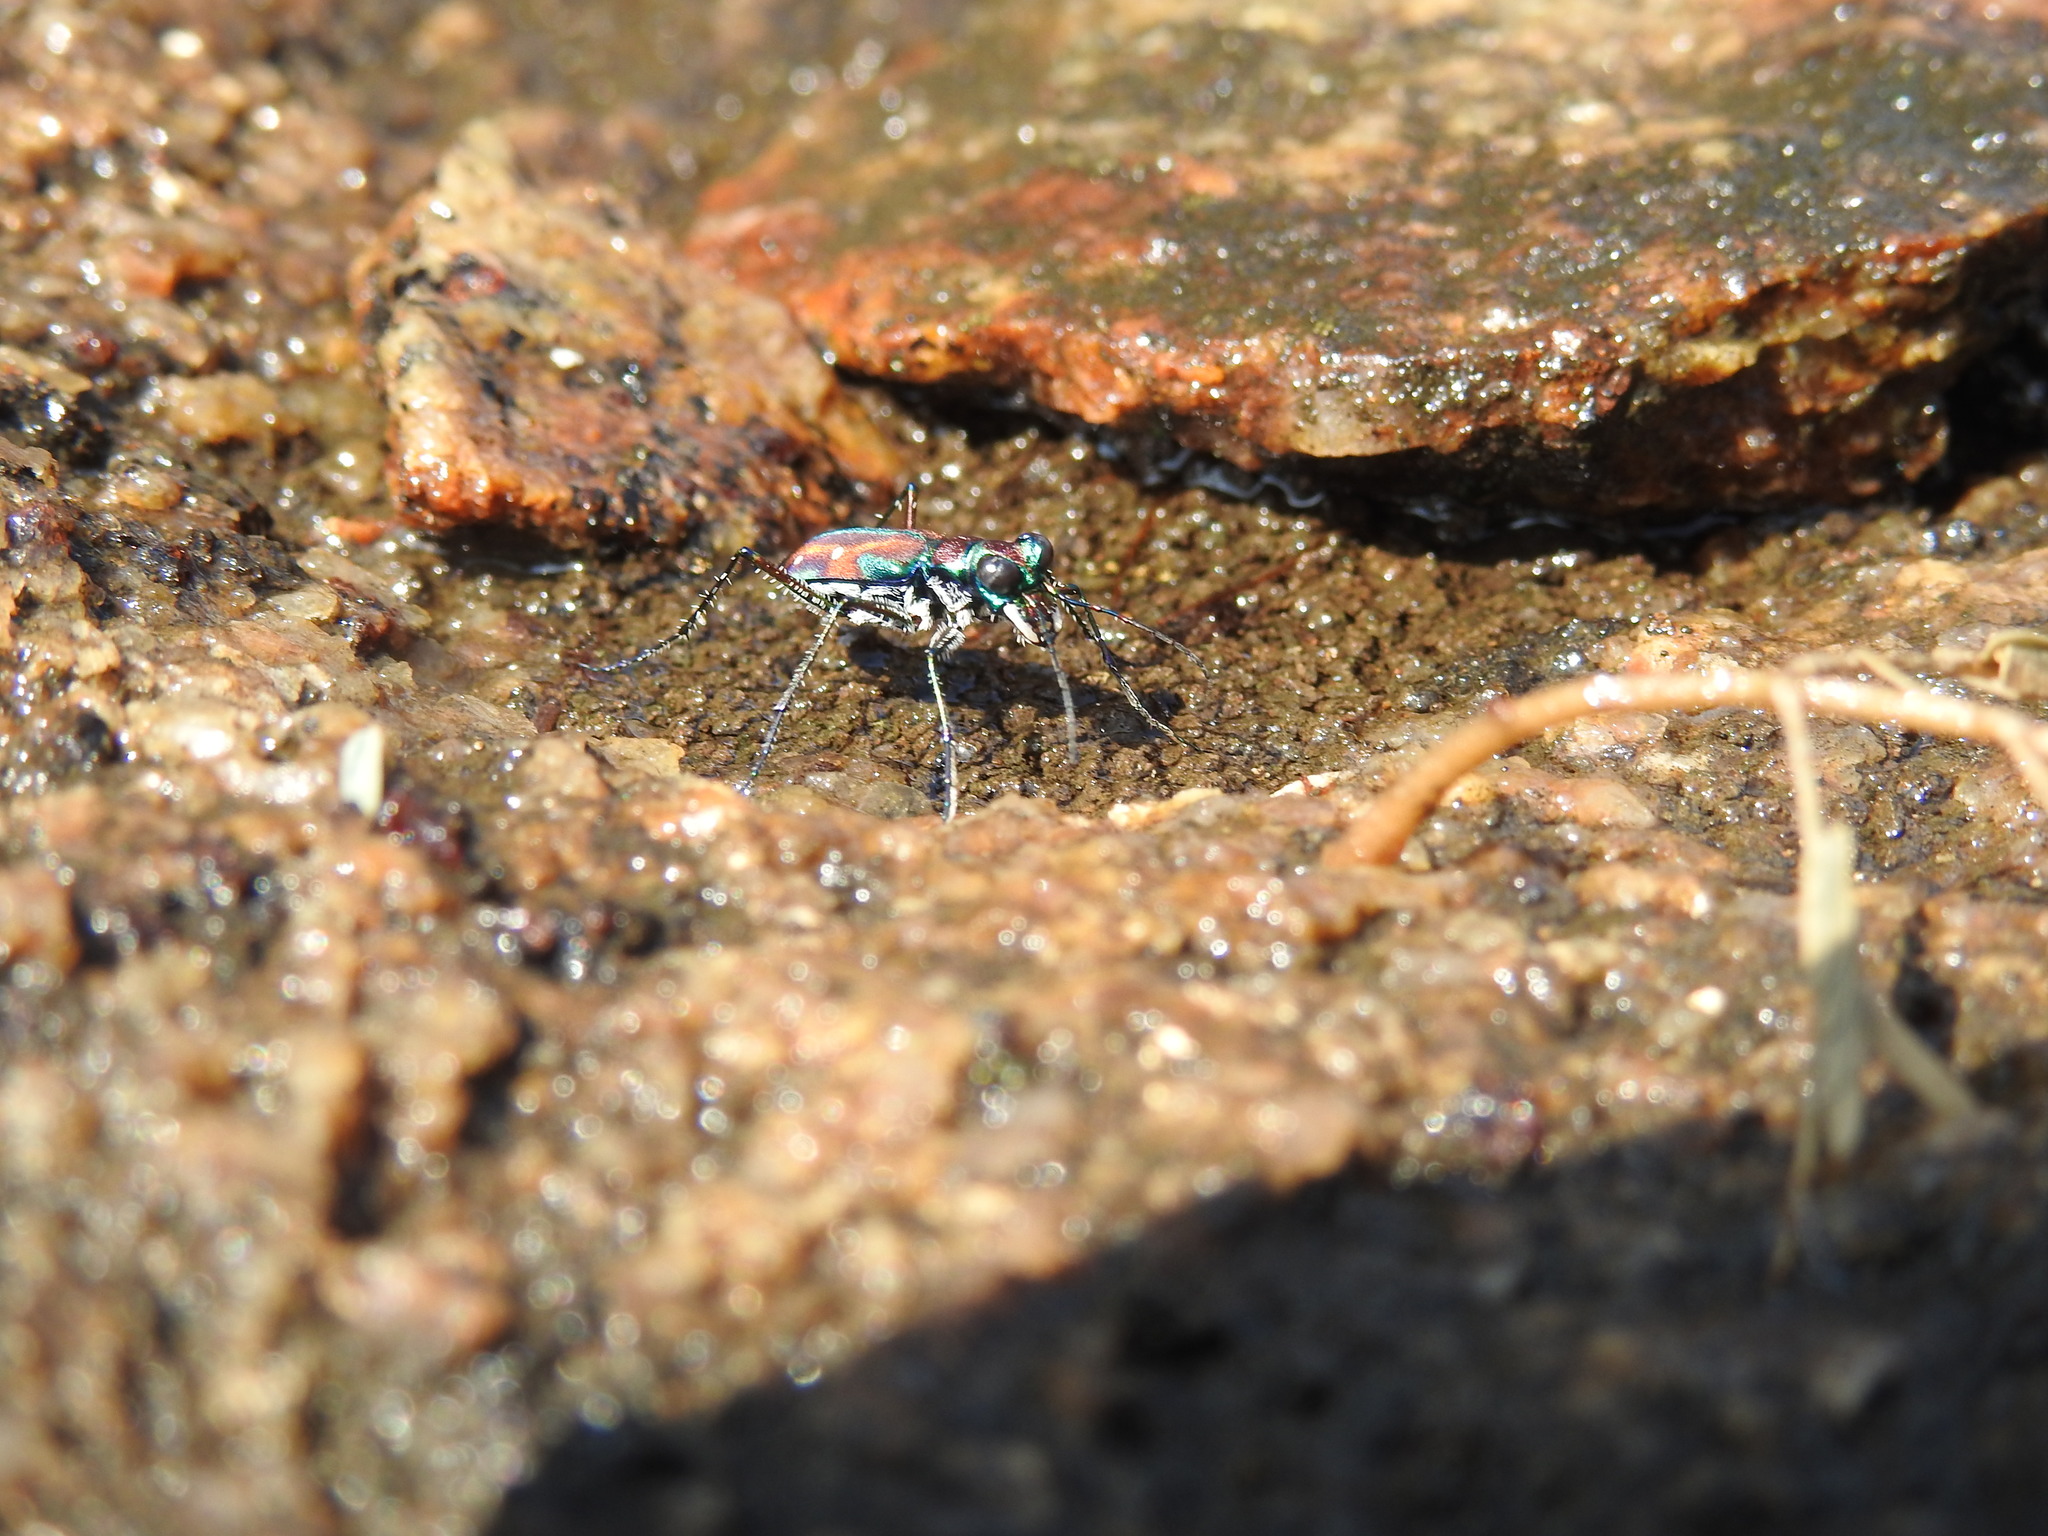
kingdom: Animalia
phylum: Arthropoda
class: Insecta
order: Coleoptera
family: Carabidae
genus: Jansenia
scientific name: Jansenia rugosiceps
